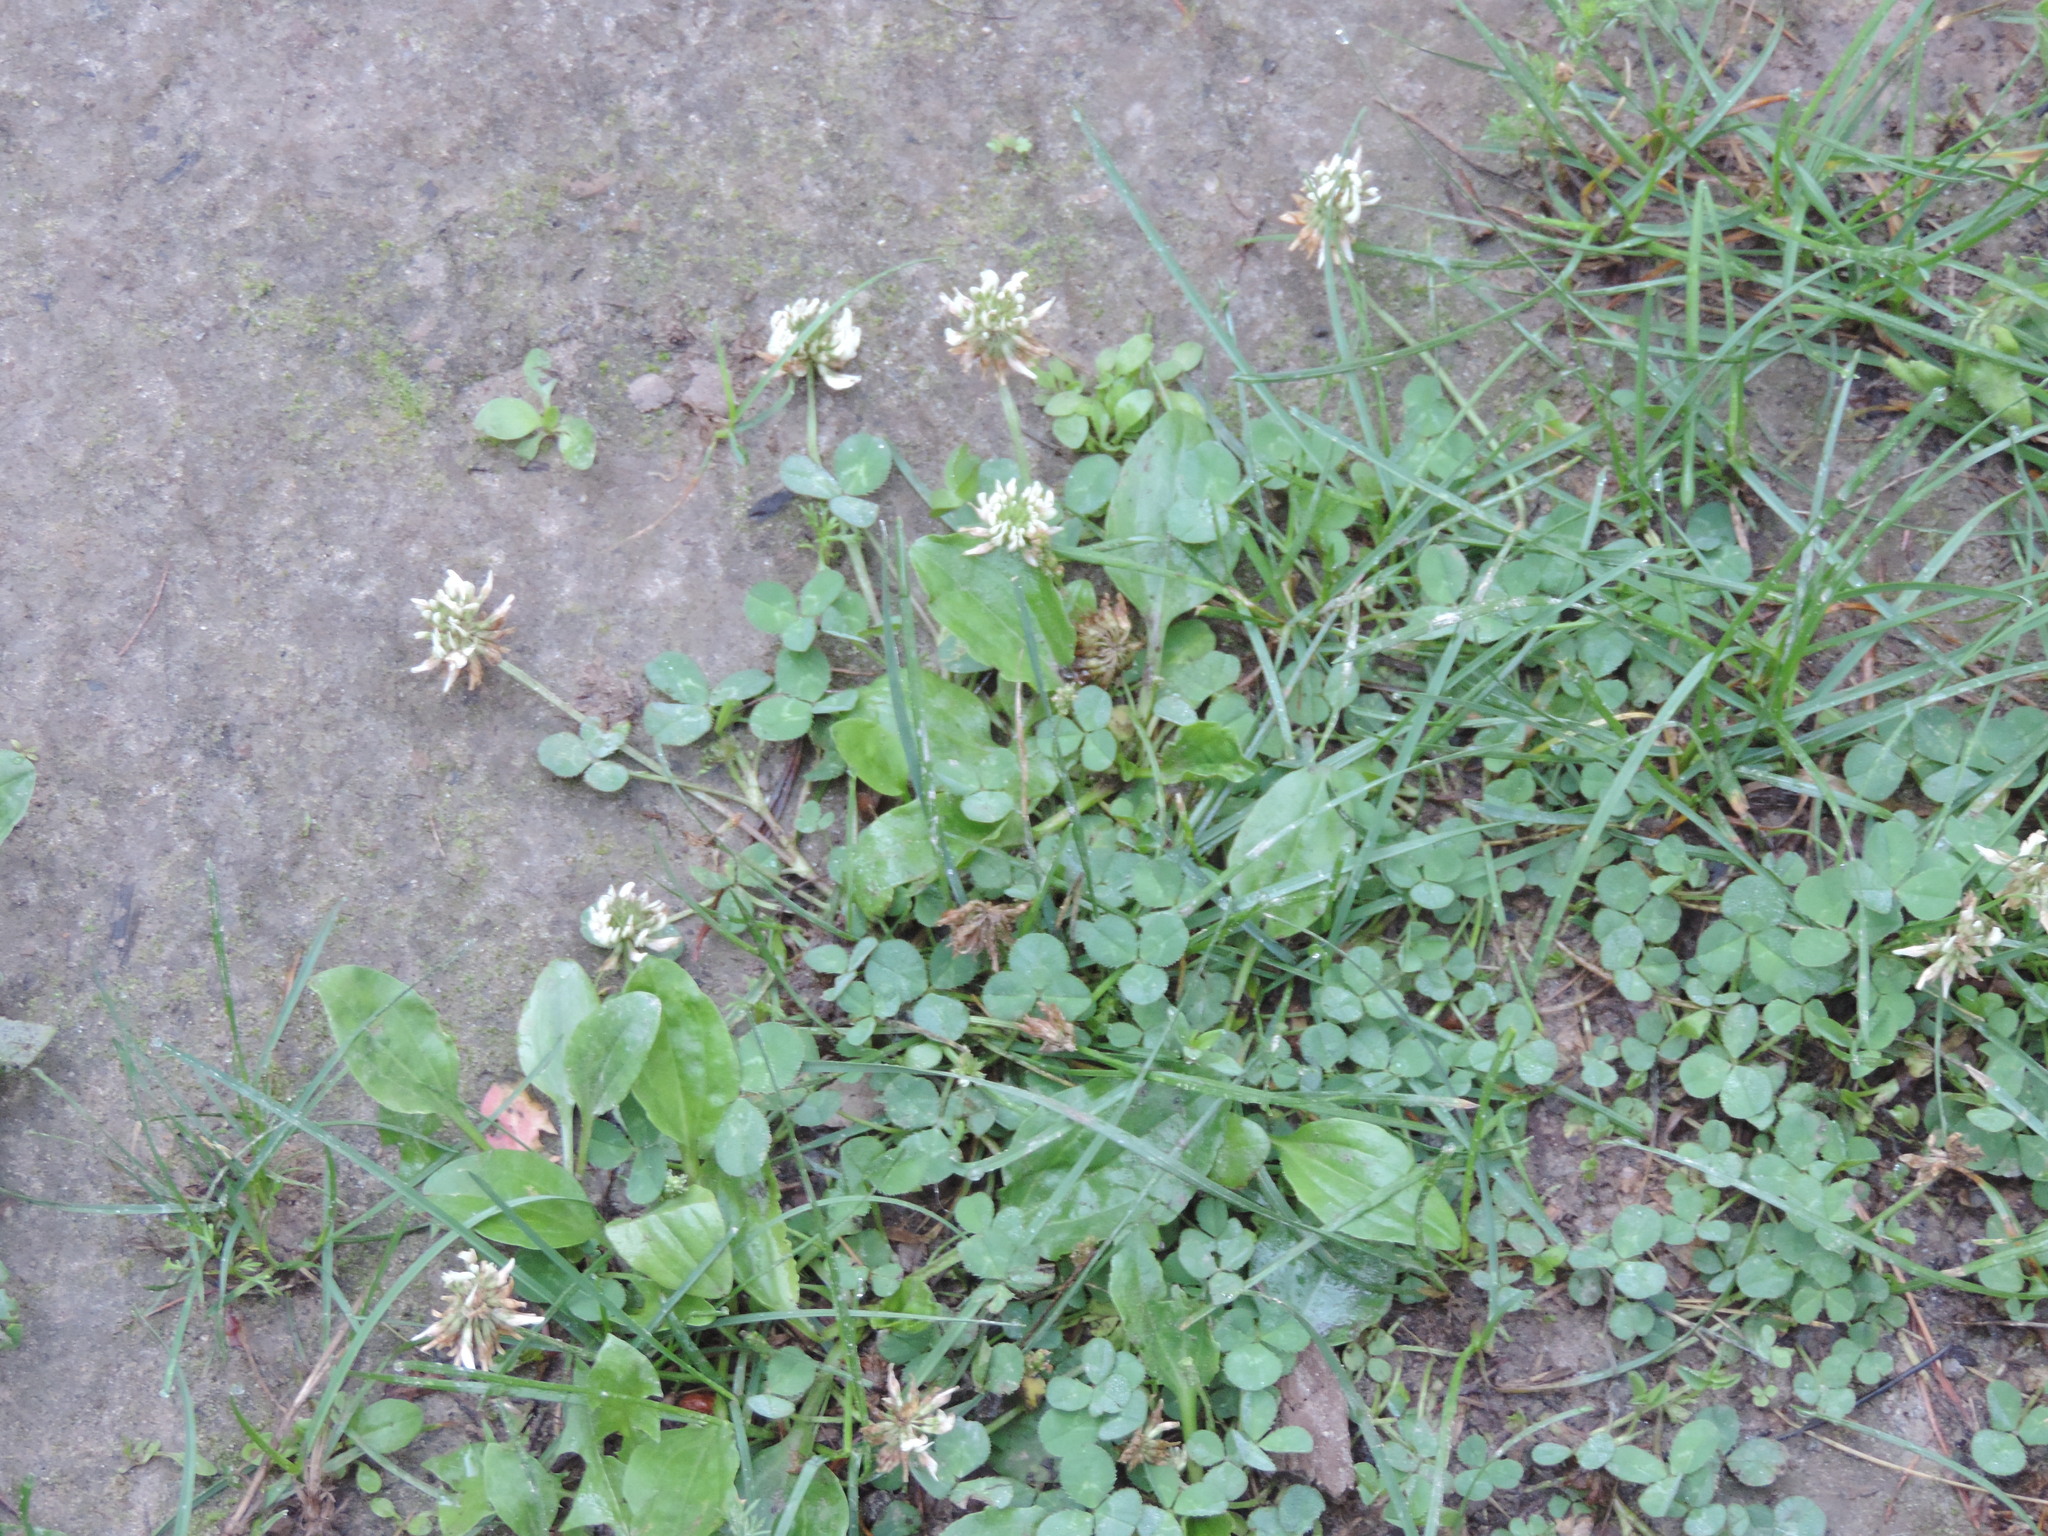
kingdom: Plantae
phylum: Tracheophyta
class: Magnoliopsida
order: Fabales
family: Fabaceae
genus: Trifolium
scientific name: Trifolium repens
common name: White clover
